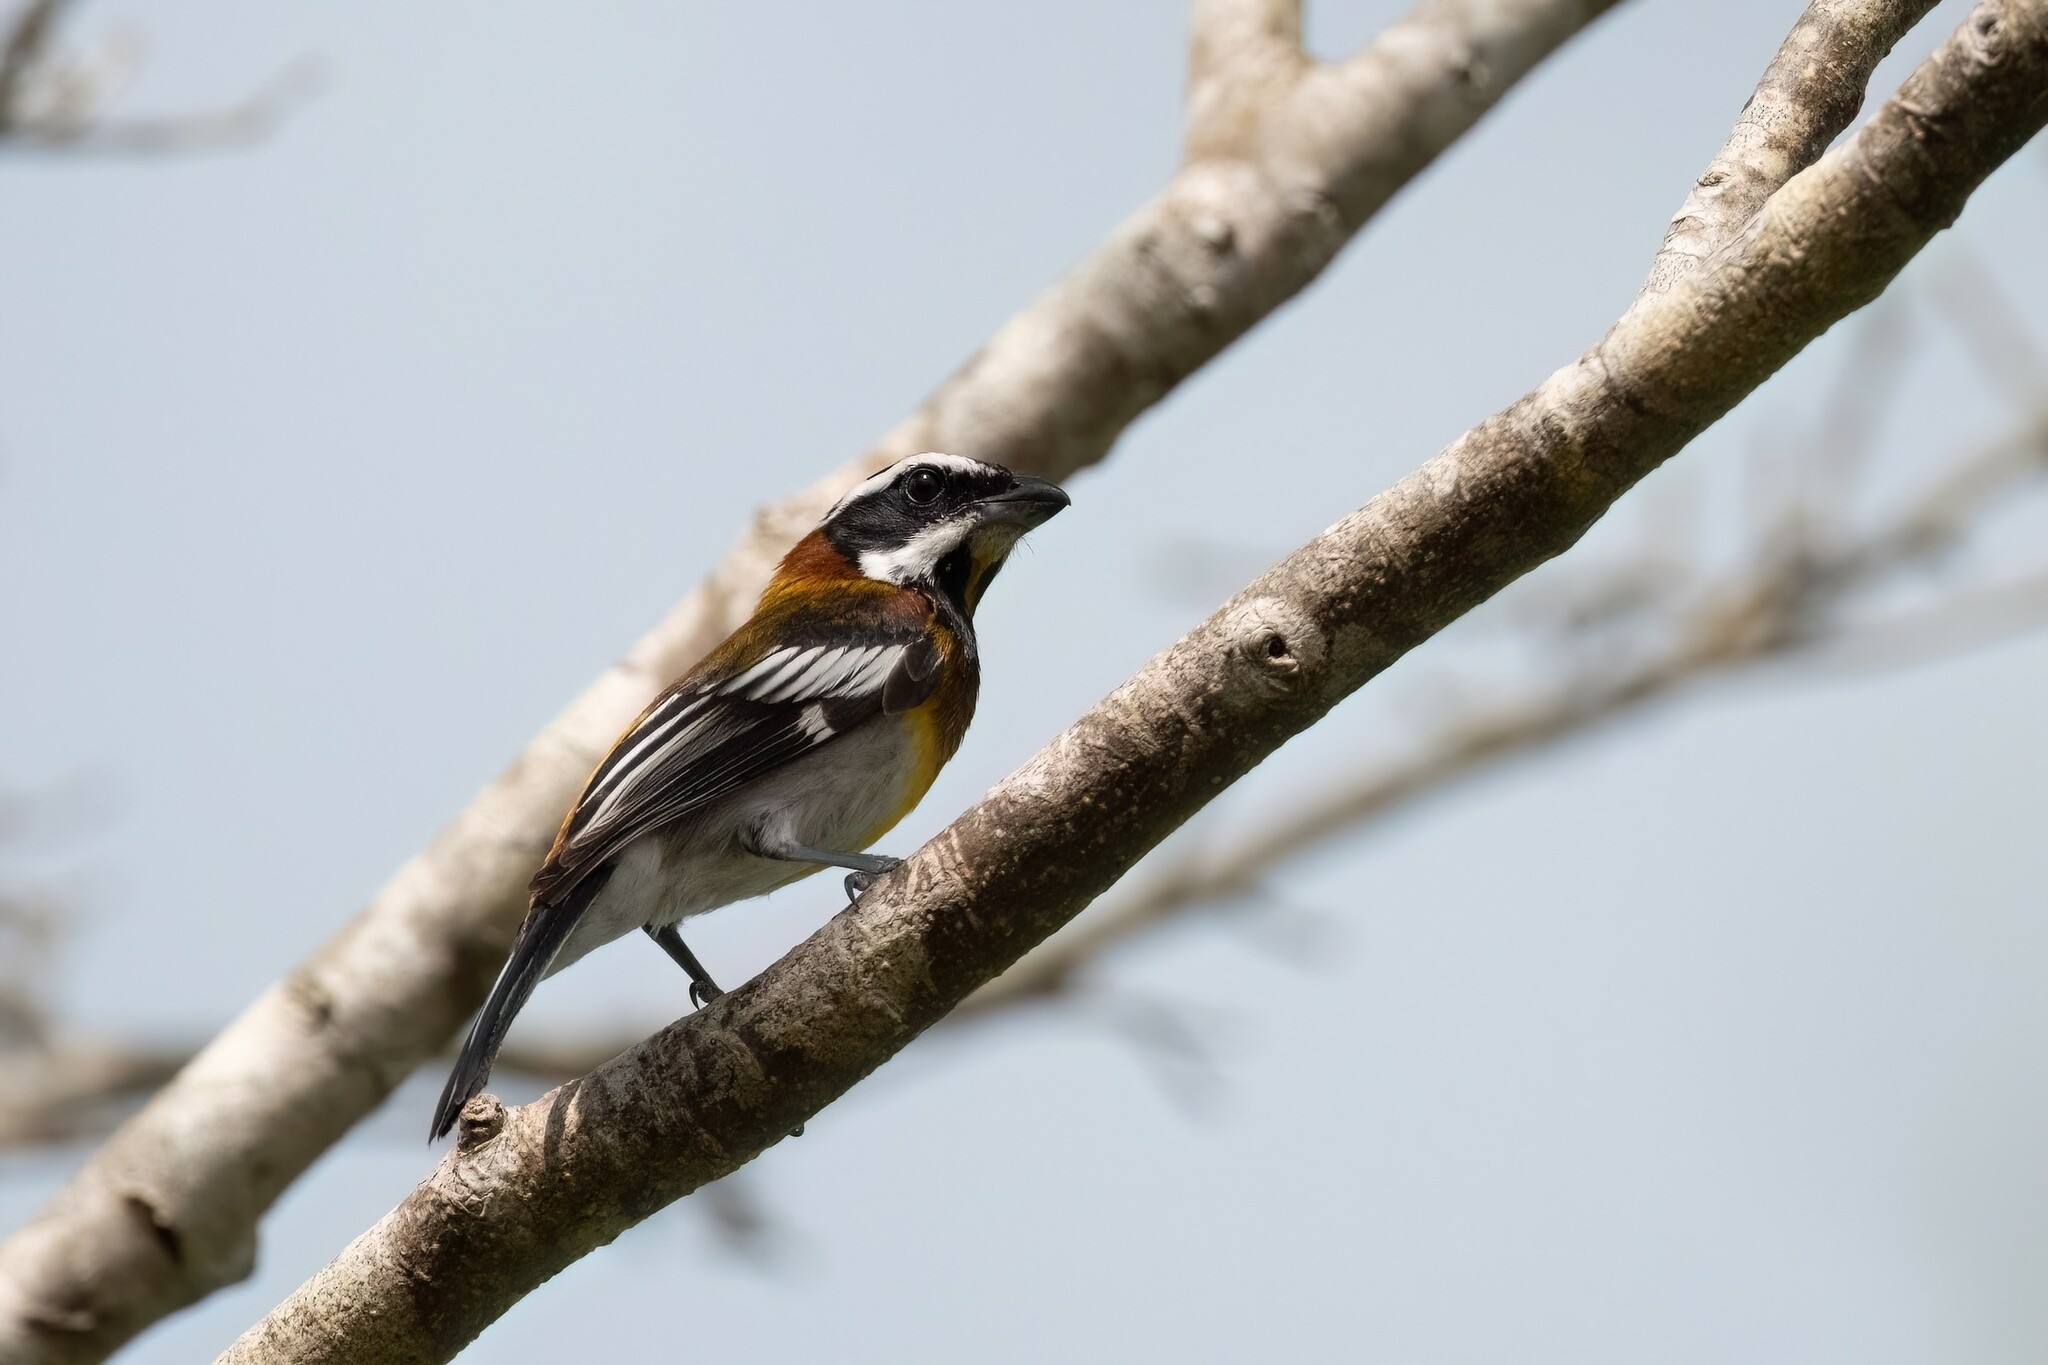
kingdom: Animalia
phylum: Chordata
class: Aves
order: Passeriformes
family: Spindalidae
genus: Spindalis
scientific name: Spindalis zena
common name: Western spindalis
